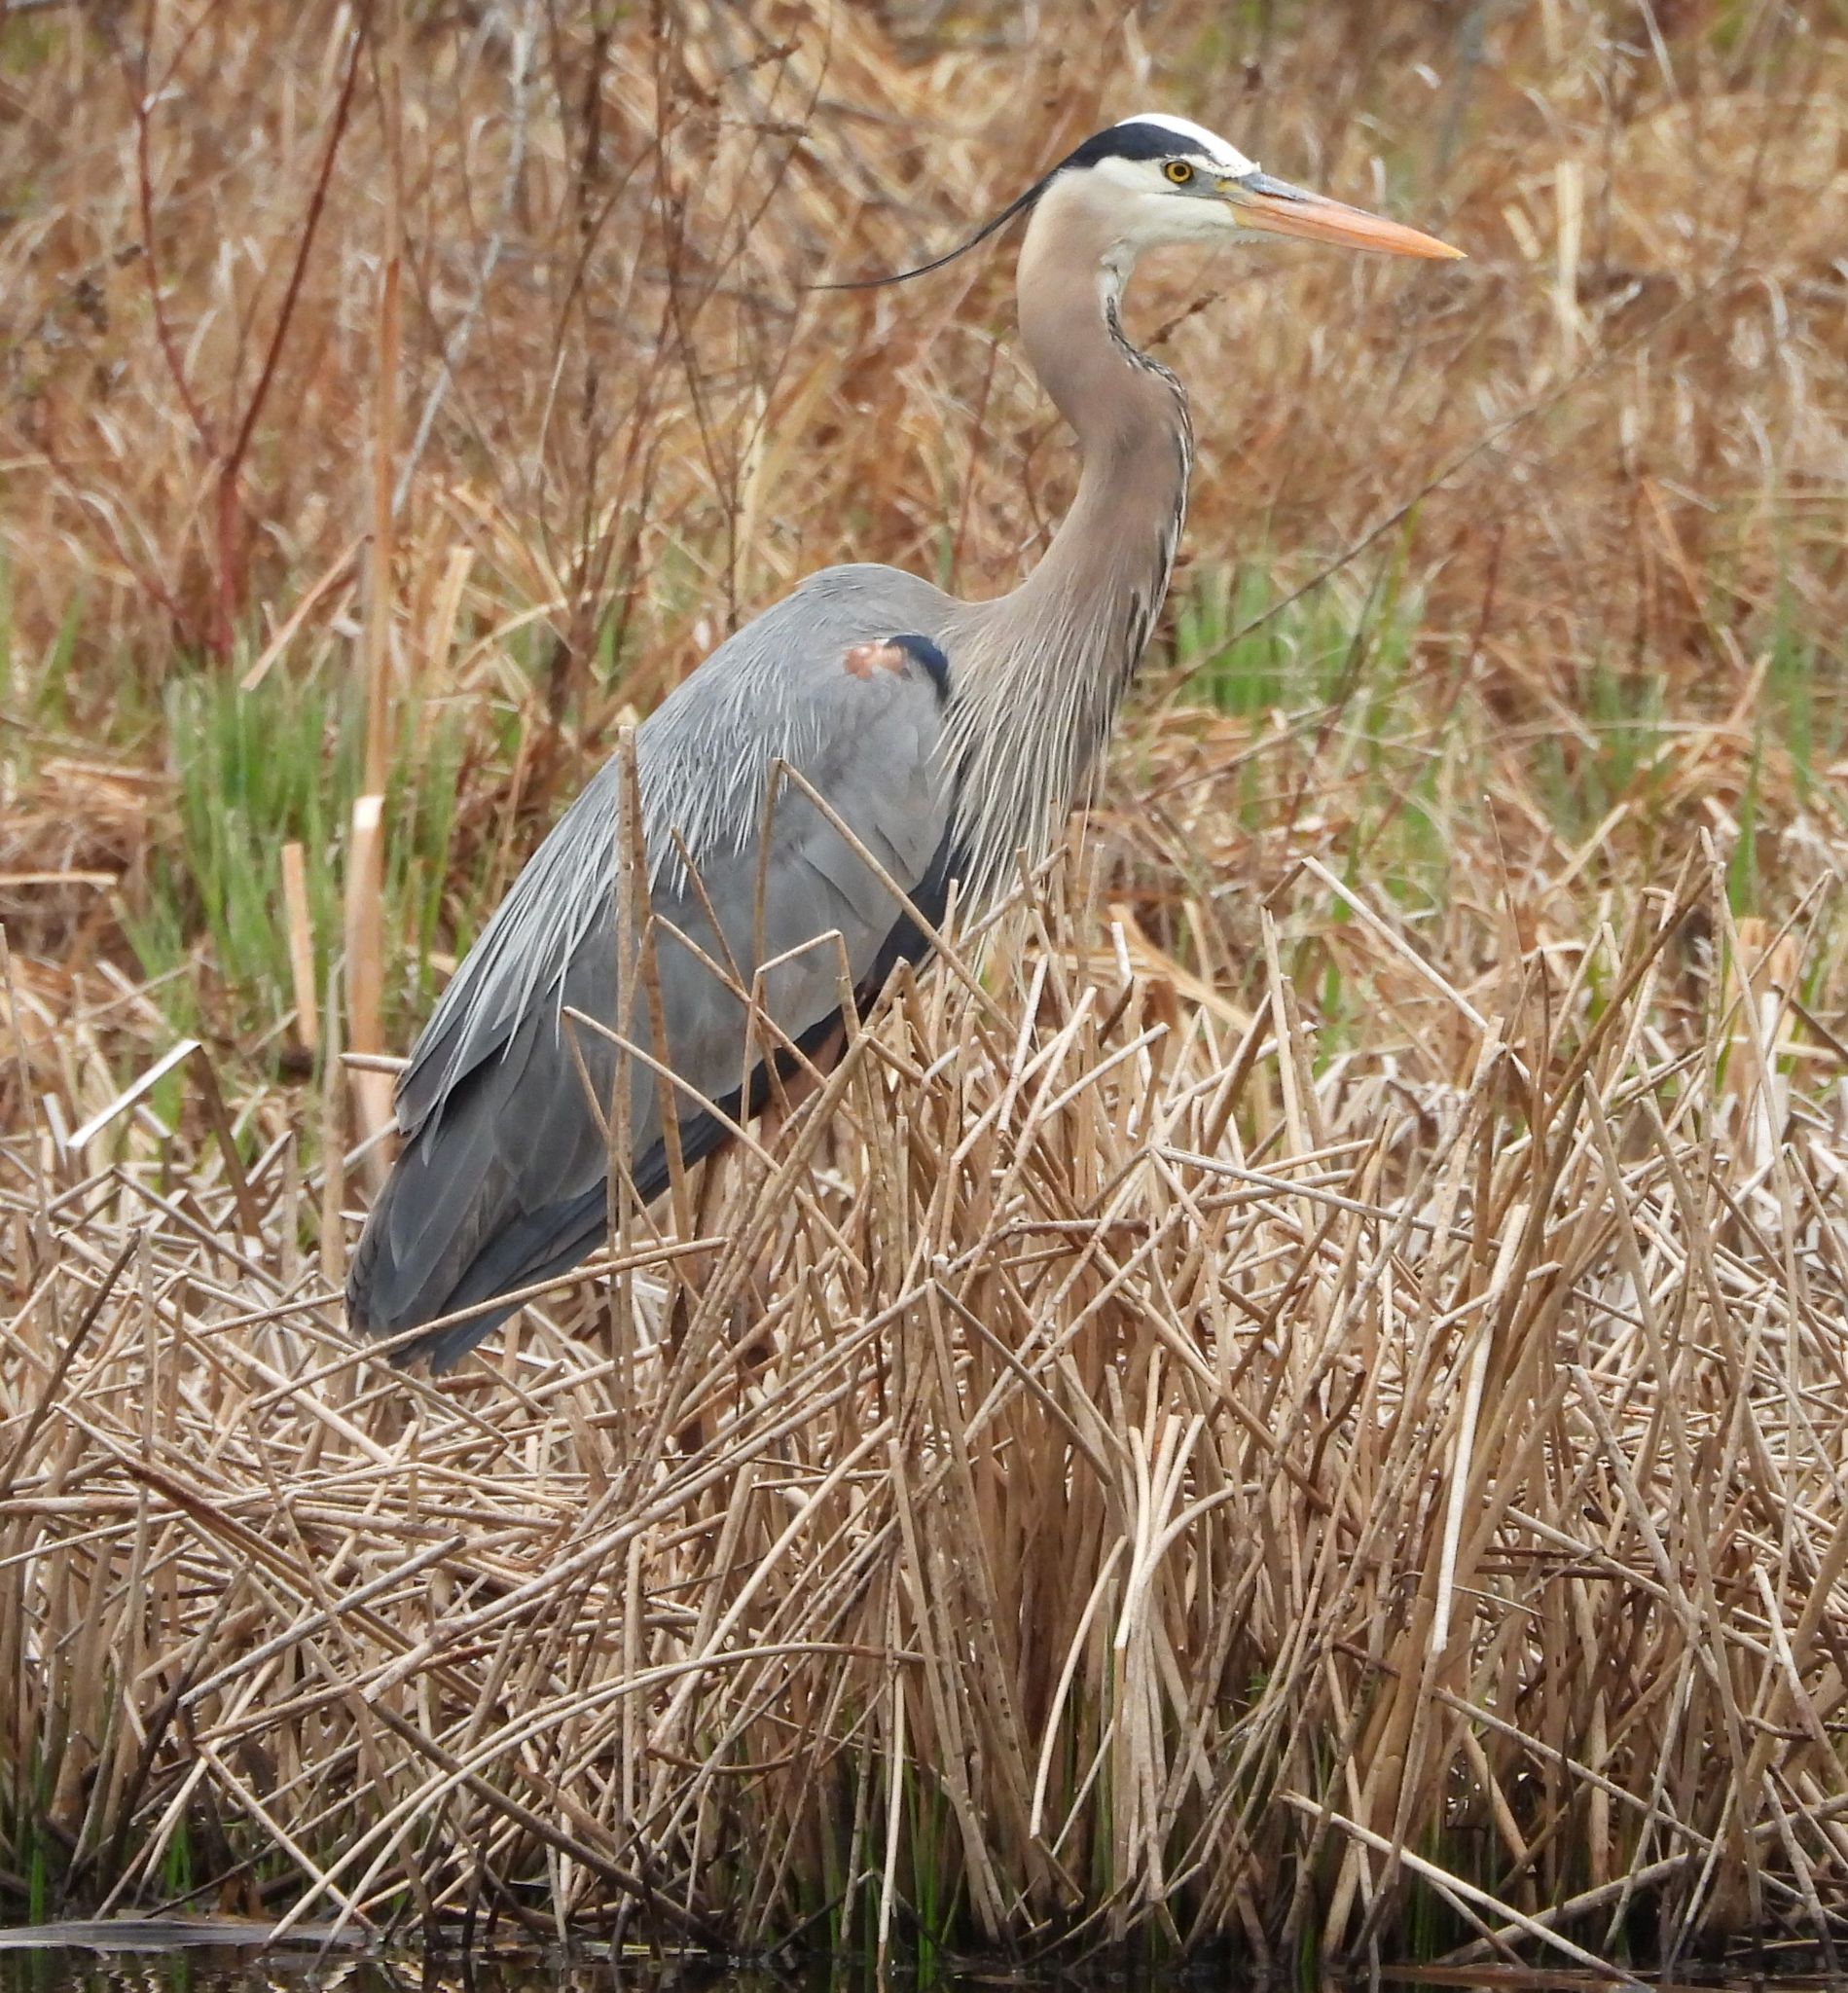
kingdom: Animalia
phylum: Chordata
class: Aves
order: Pelecaniformes
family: Ardeidae
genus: Ardea
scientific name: Ardea herodias
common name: Great blue heron
